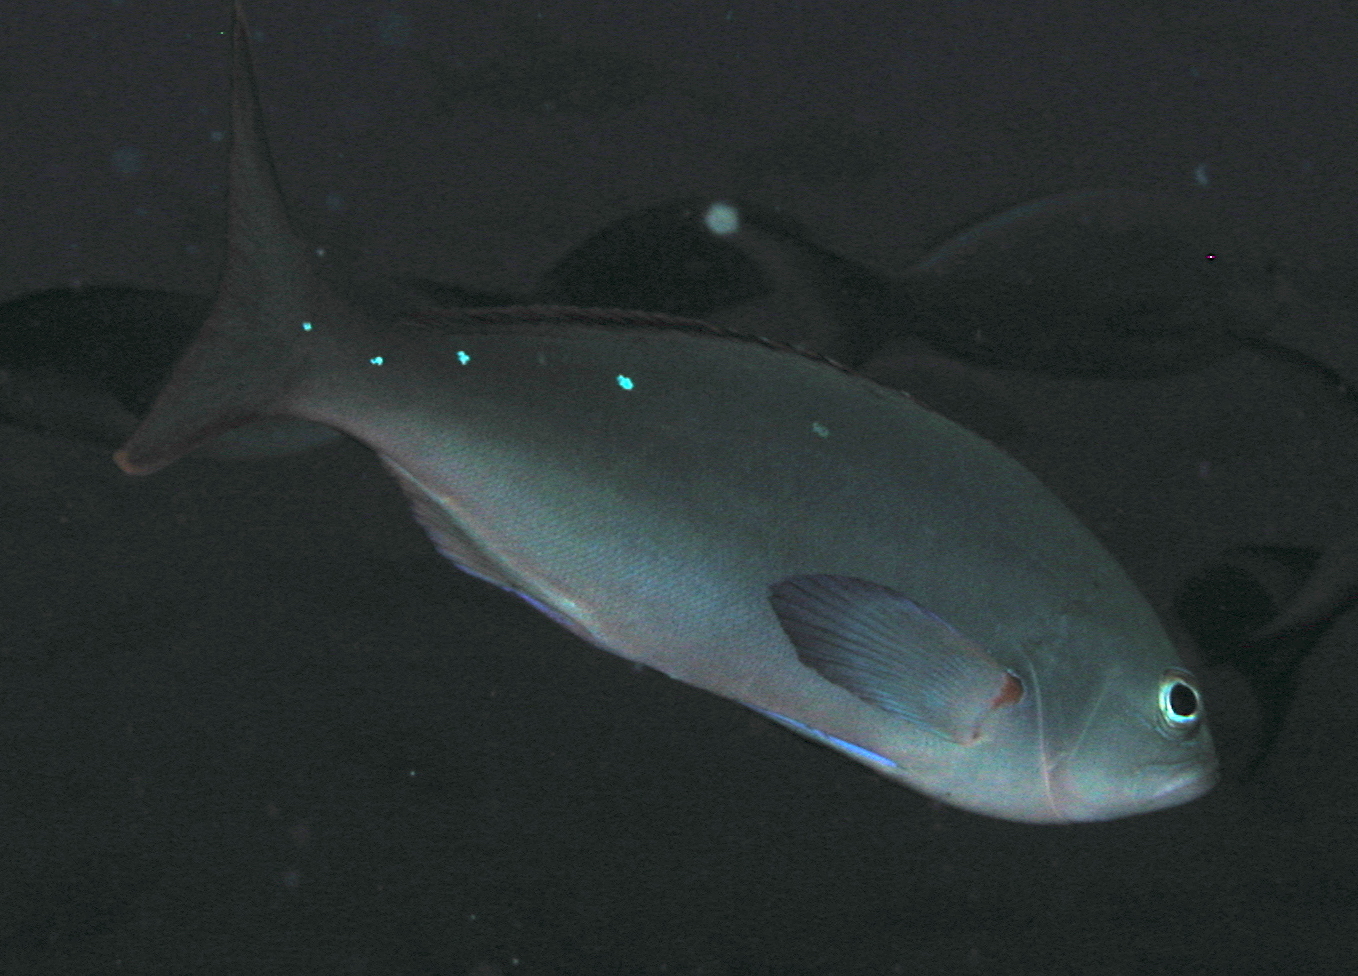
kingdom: Animalia
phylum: Chordata
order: Perciformes
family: Serranidae
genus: Paranthias
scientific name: Paranthias colonus
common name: Pacific creole-fish
